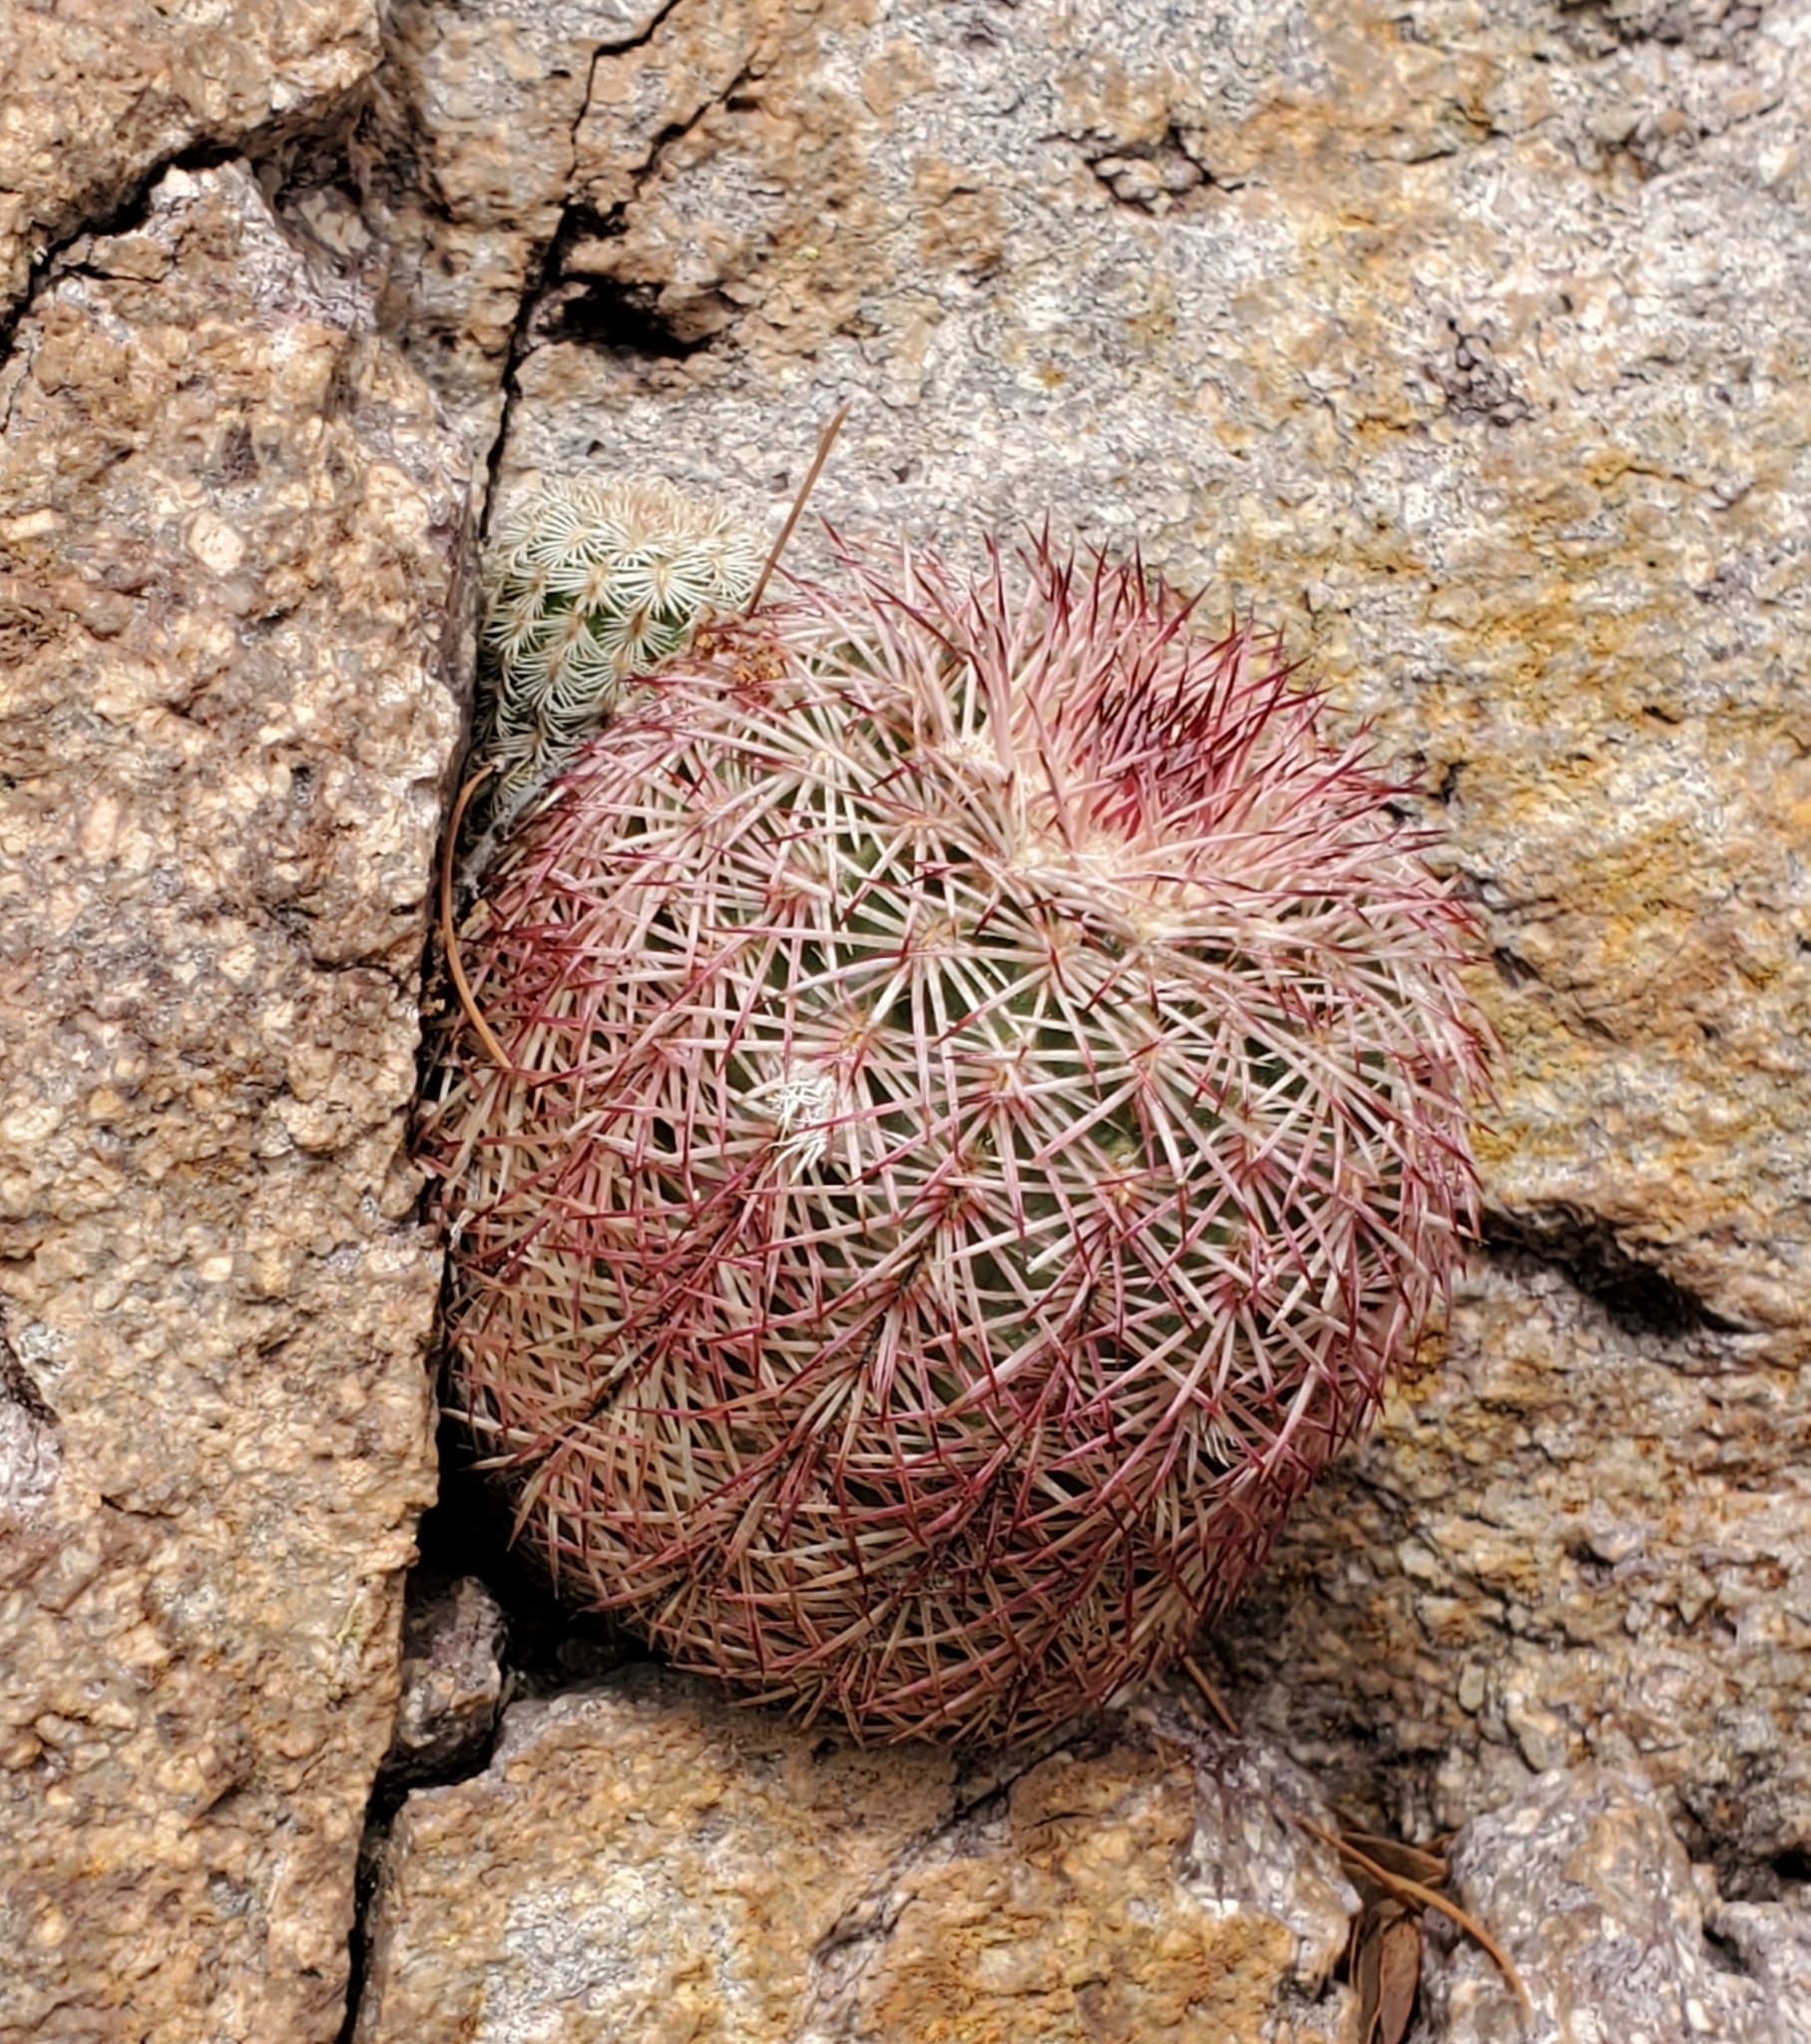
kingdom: Plantae
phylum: Tracheophyta
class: Magnoliopsida
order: Caryophyllales
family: Cactaceae
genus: Echinocereus
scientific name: Echinocereus rigidissimus
